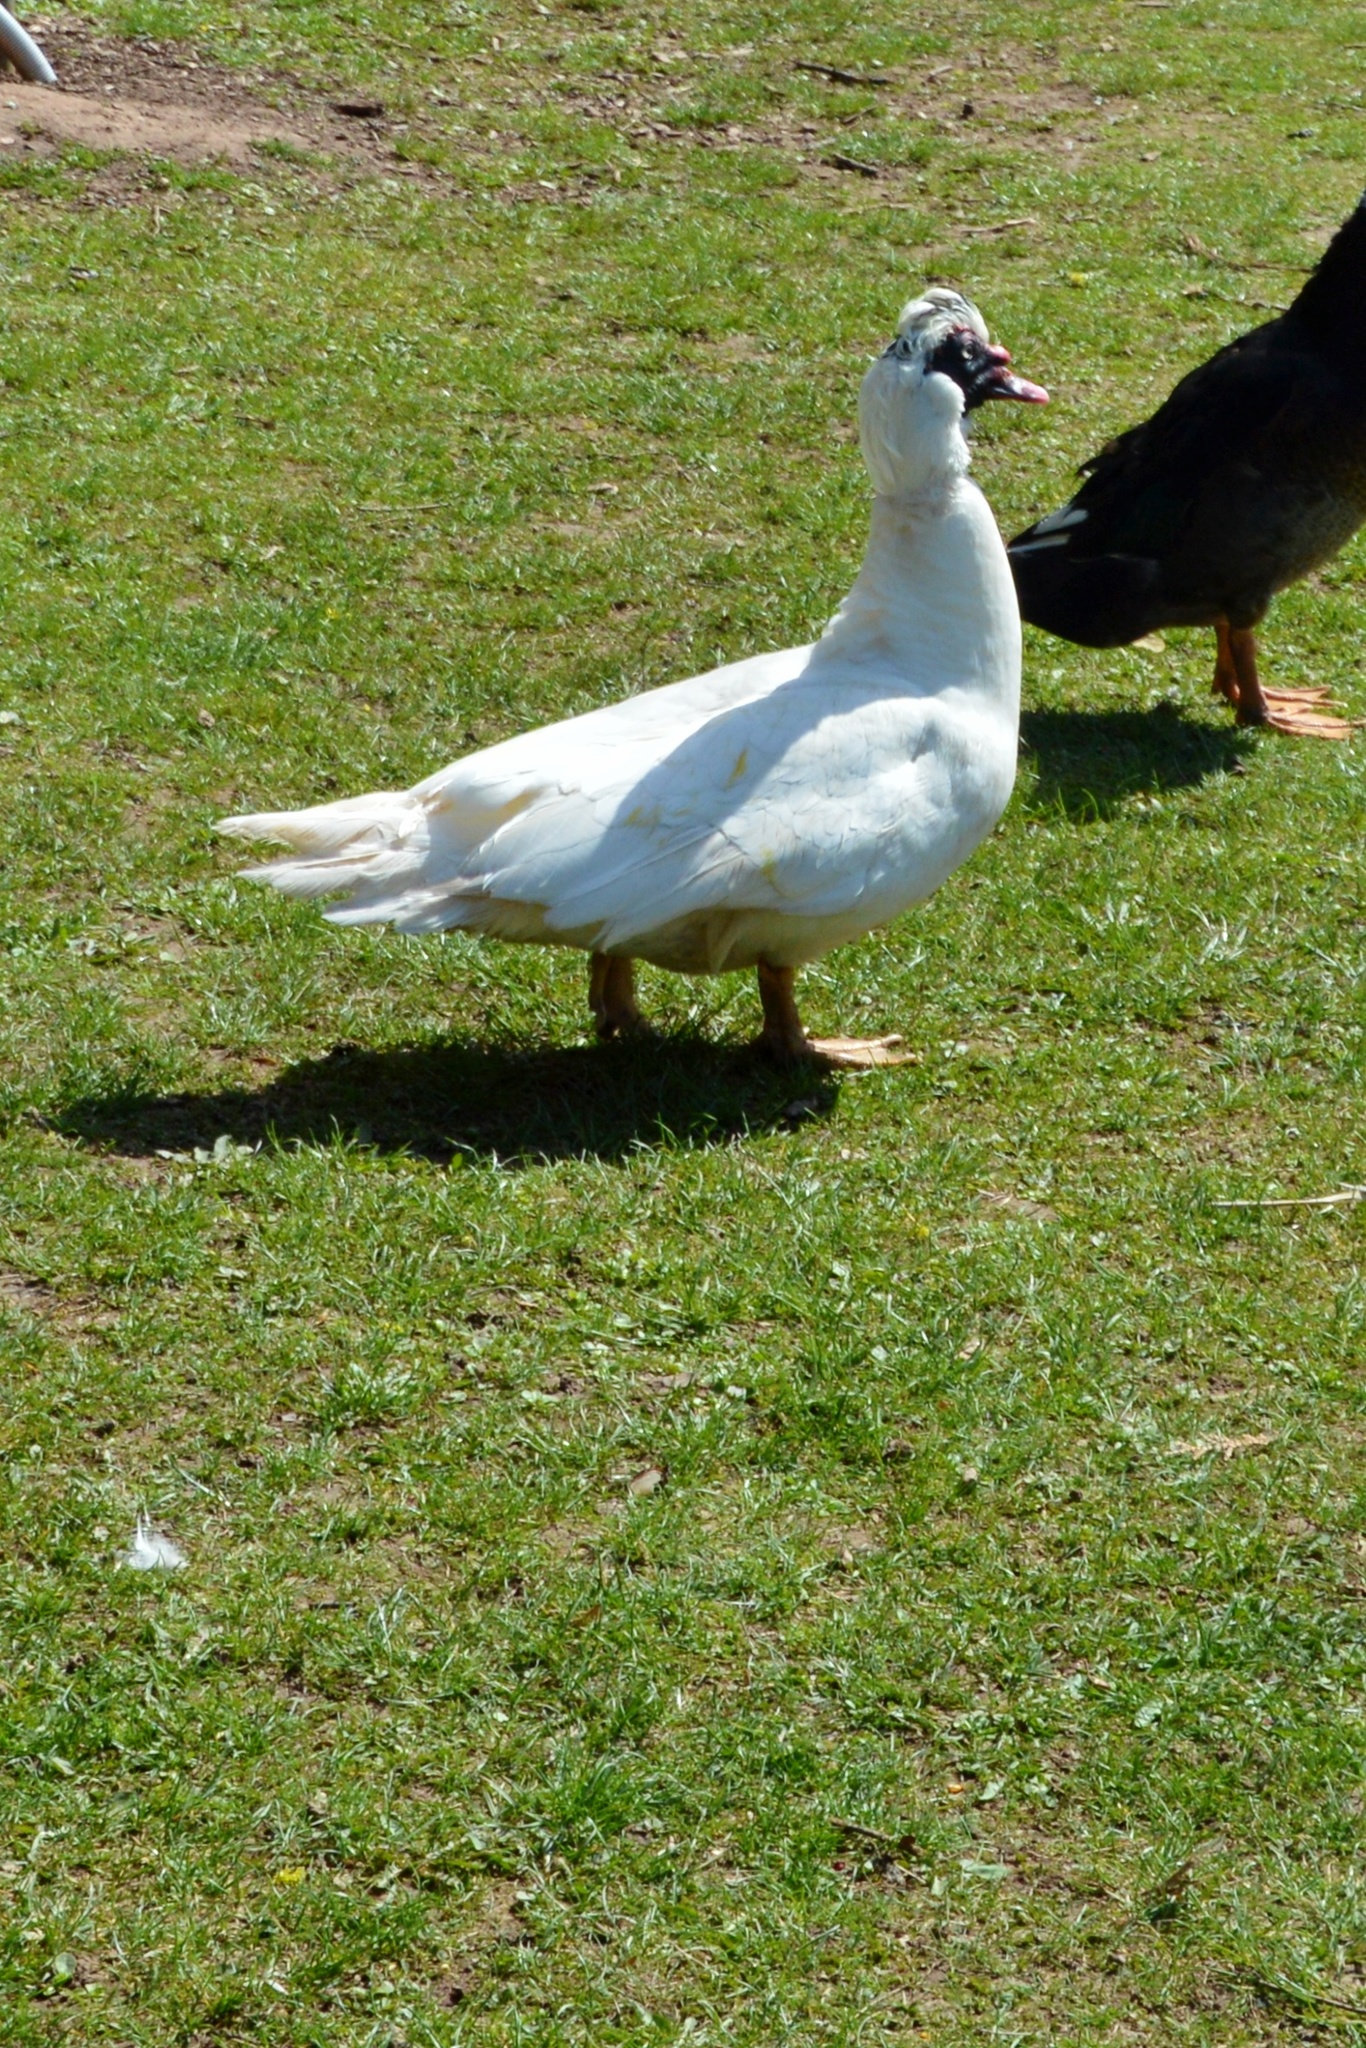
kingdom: Animalia
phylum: Chordata
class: Aves
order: Anseriformes
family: Anatidae
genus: Cairina
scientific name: Cairina moschata
